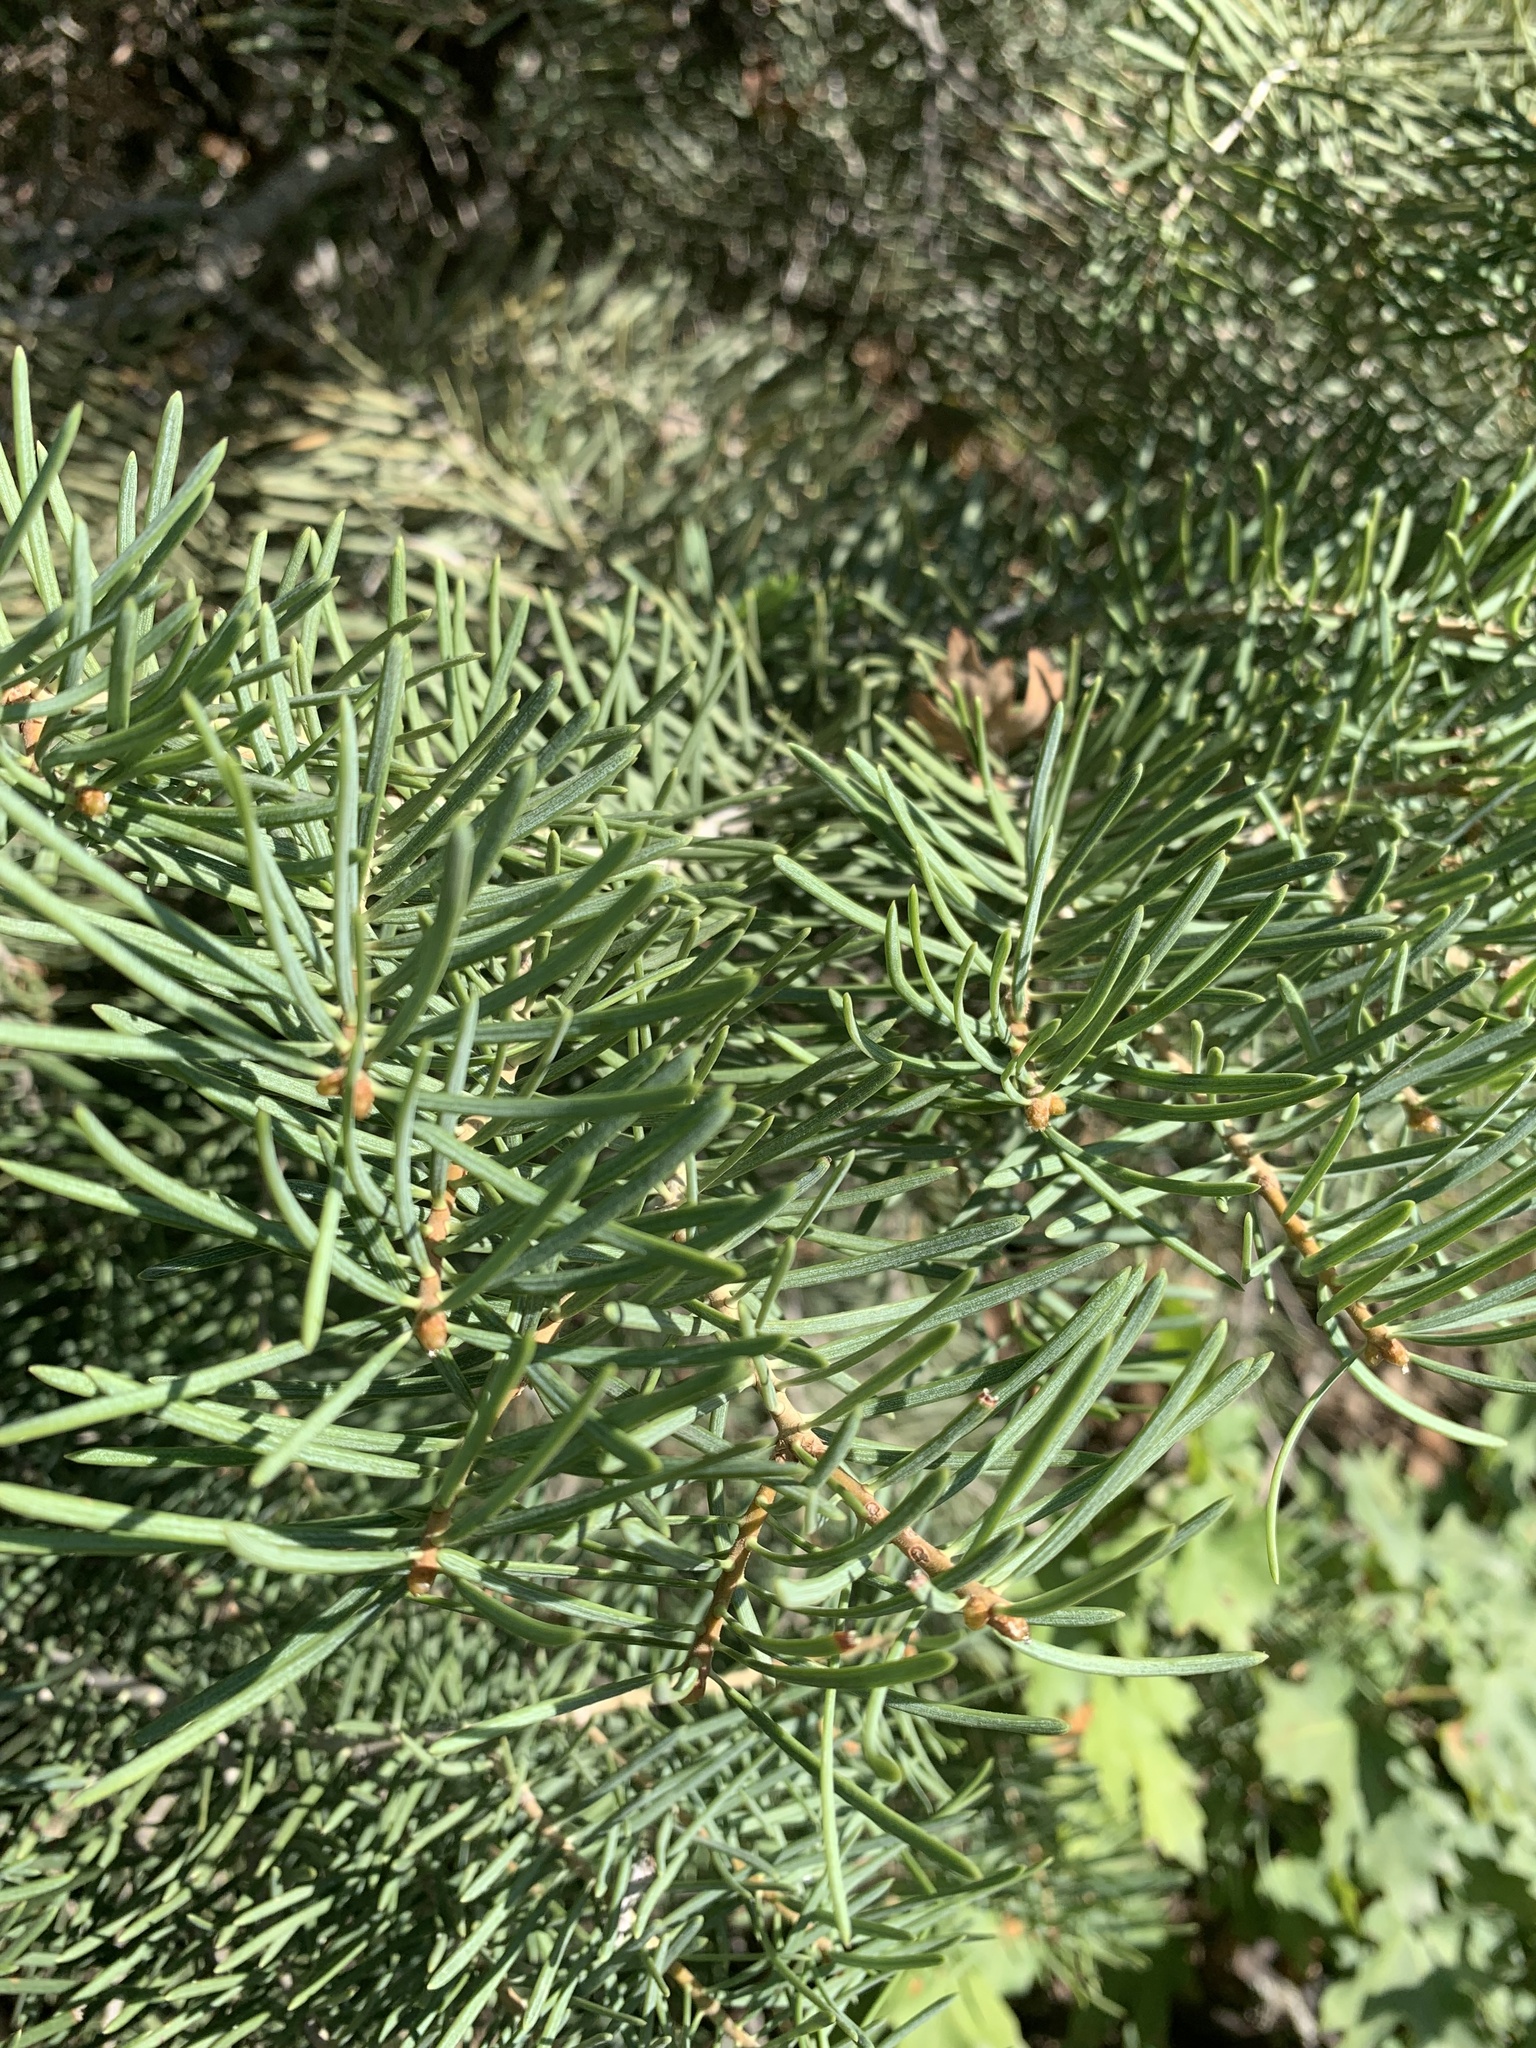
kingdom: Plantae
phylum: Tracheophyta
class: Pinopsida
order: Pinales
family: Pinaceae
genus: Abies
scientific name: Abies concolor
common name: Colorado fir
